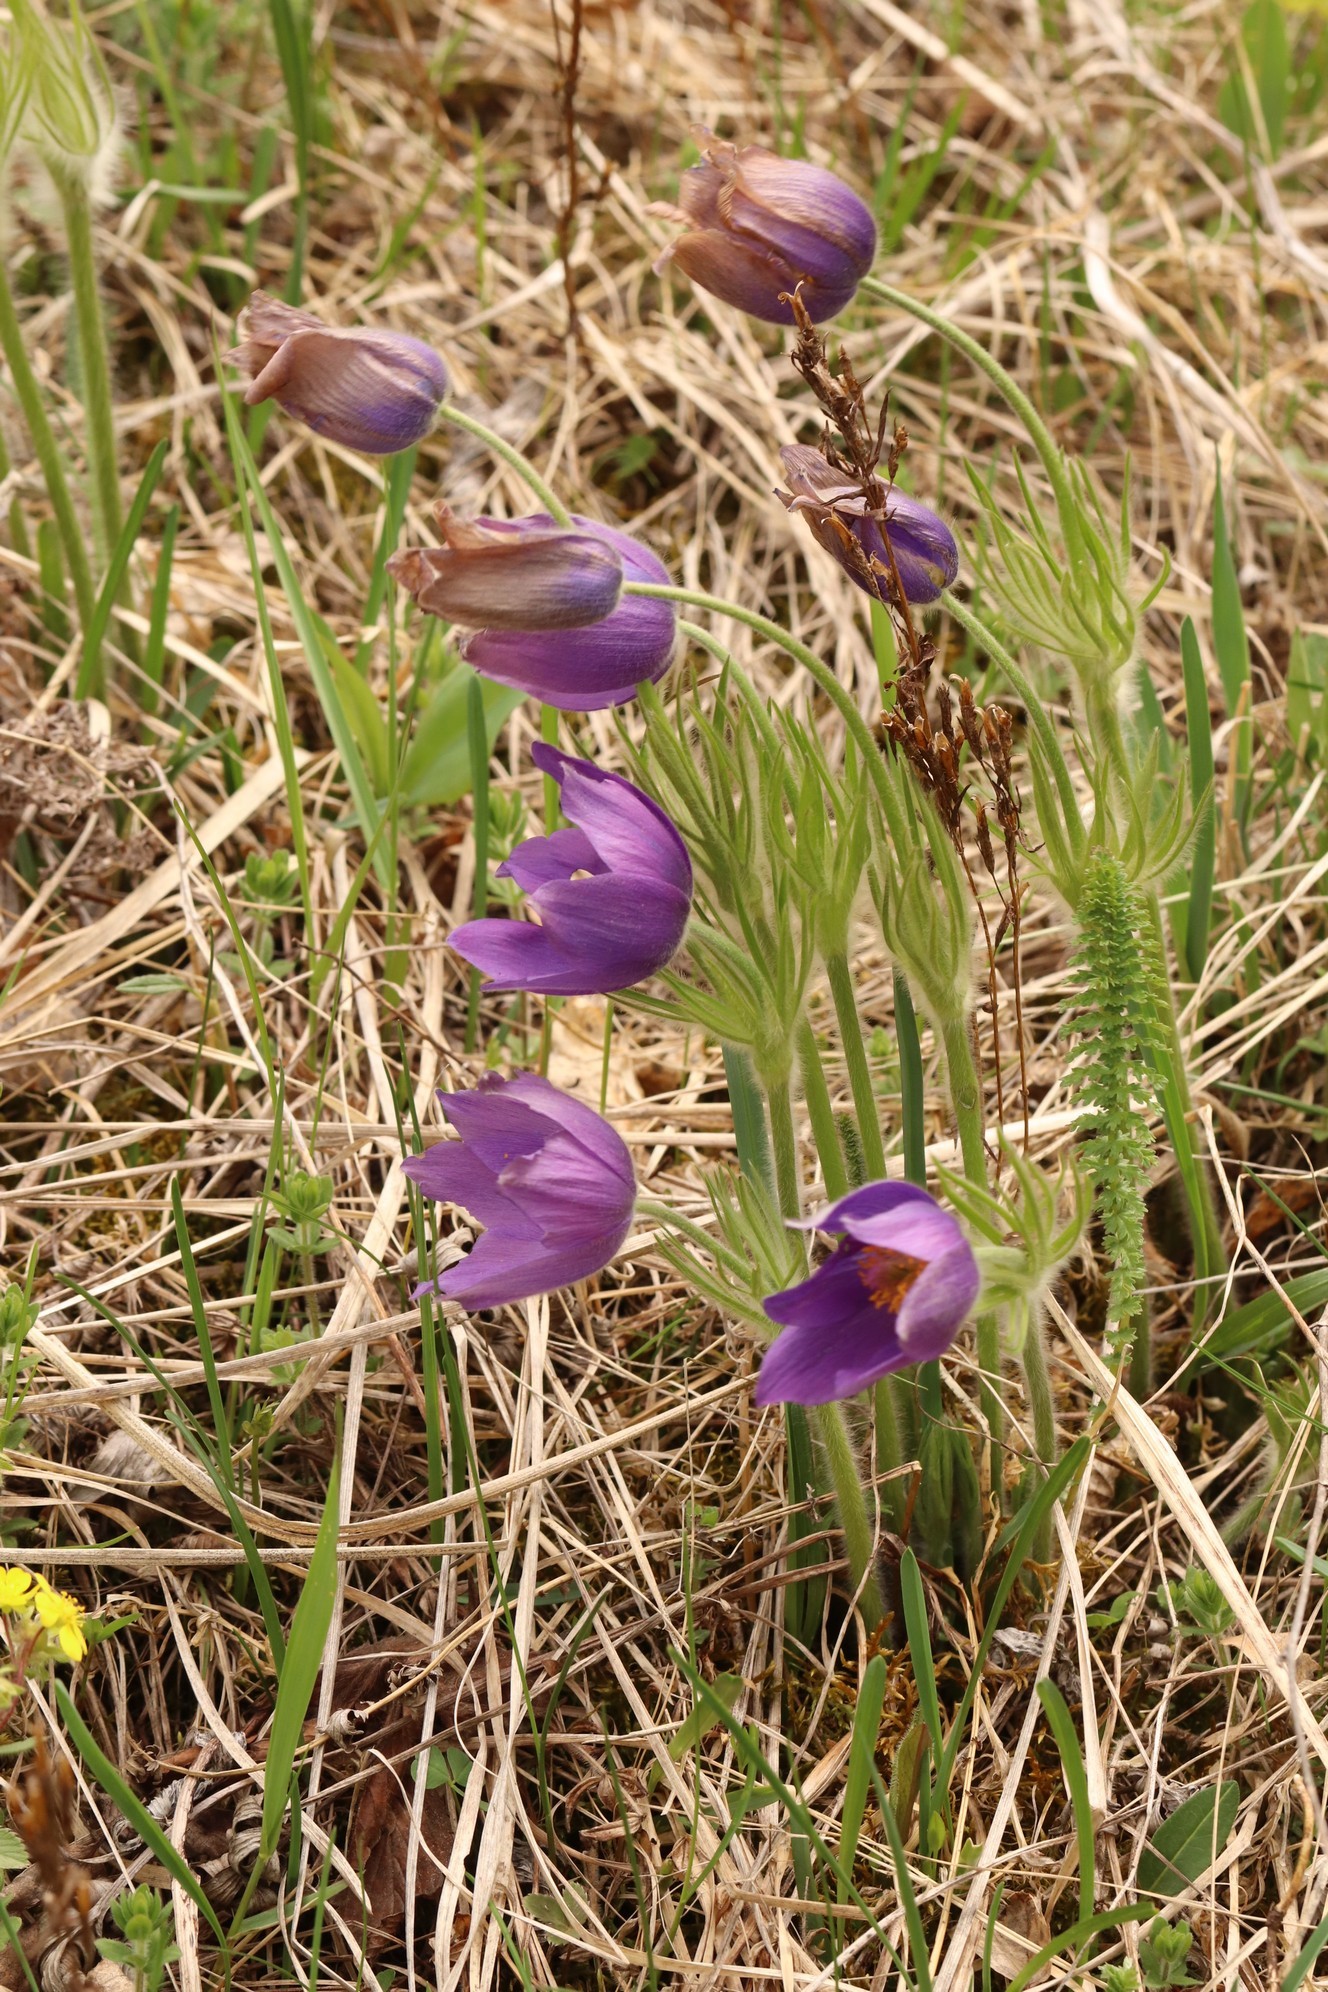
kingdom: Plantae
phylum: Tracheophyta
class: Magnoliopsida
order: Ranunculales
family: Ranunculaceae
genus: Pulsatilla
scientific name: Pulsatilla patens
